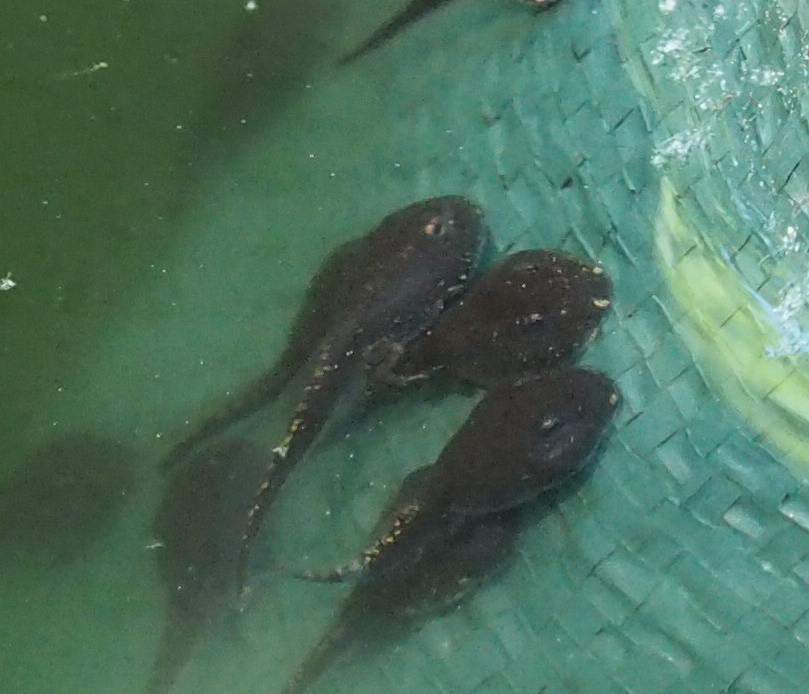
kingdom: Animalia
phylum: Chordata
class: Amphibia
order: Anura
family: Bufonidae
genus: Anaxyrus
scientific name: Anaxyrus americanus
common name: American toad
